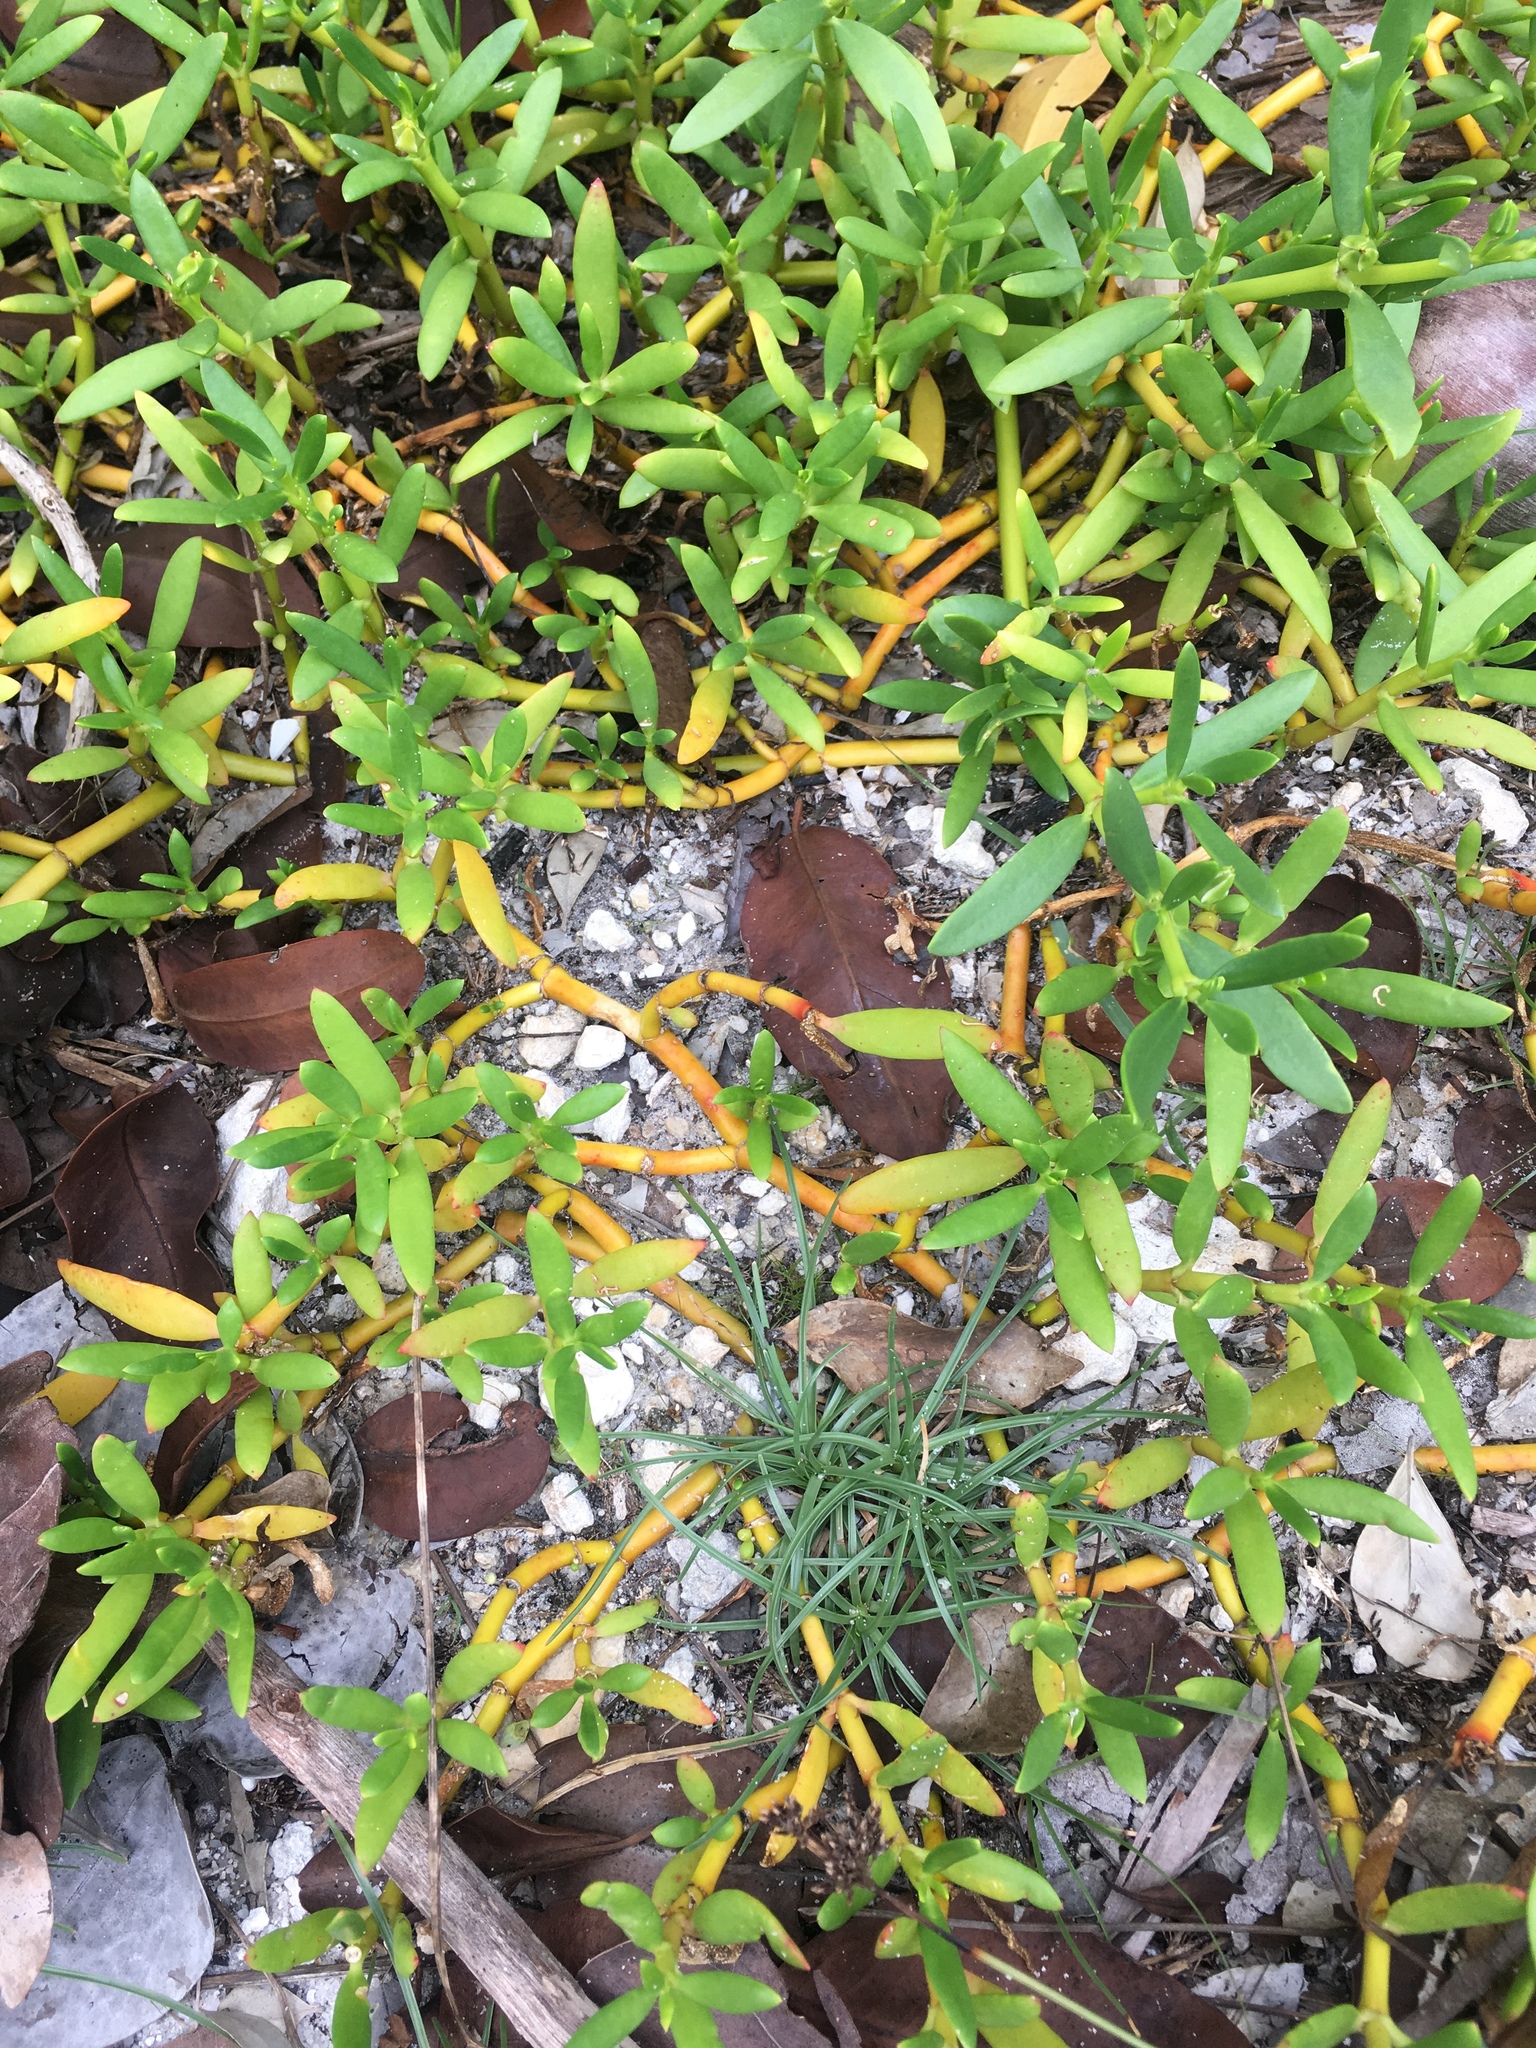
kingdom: Plantae
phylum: Tracheophyta
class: Magnoliopsida
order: Caryophyllales
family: Aizoaceae
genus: Sesuvium
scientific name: Sesuvium portulacastrum
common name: Sea-purslane
